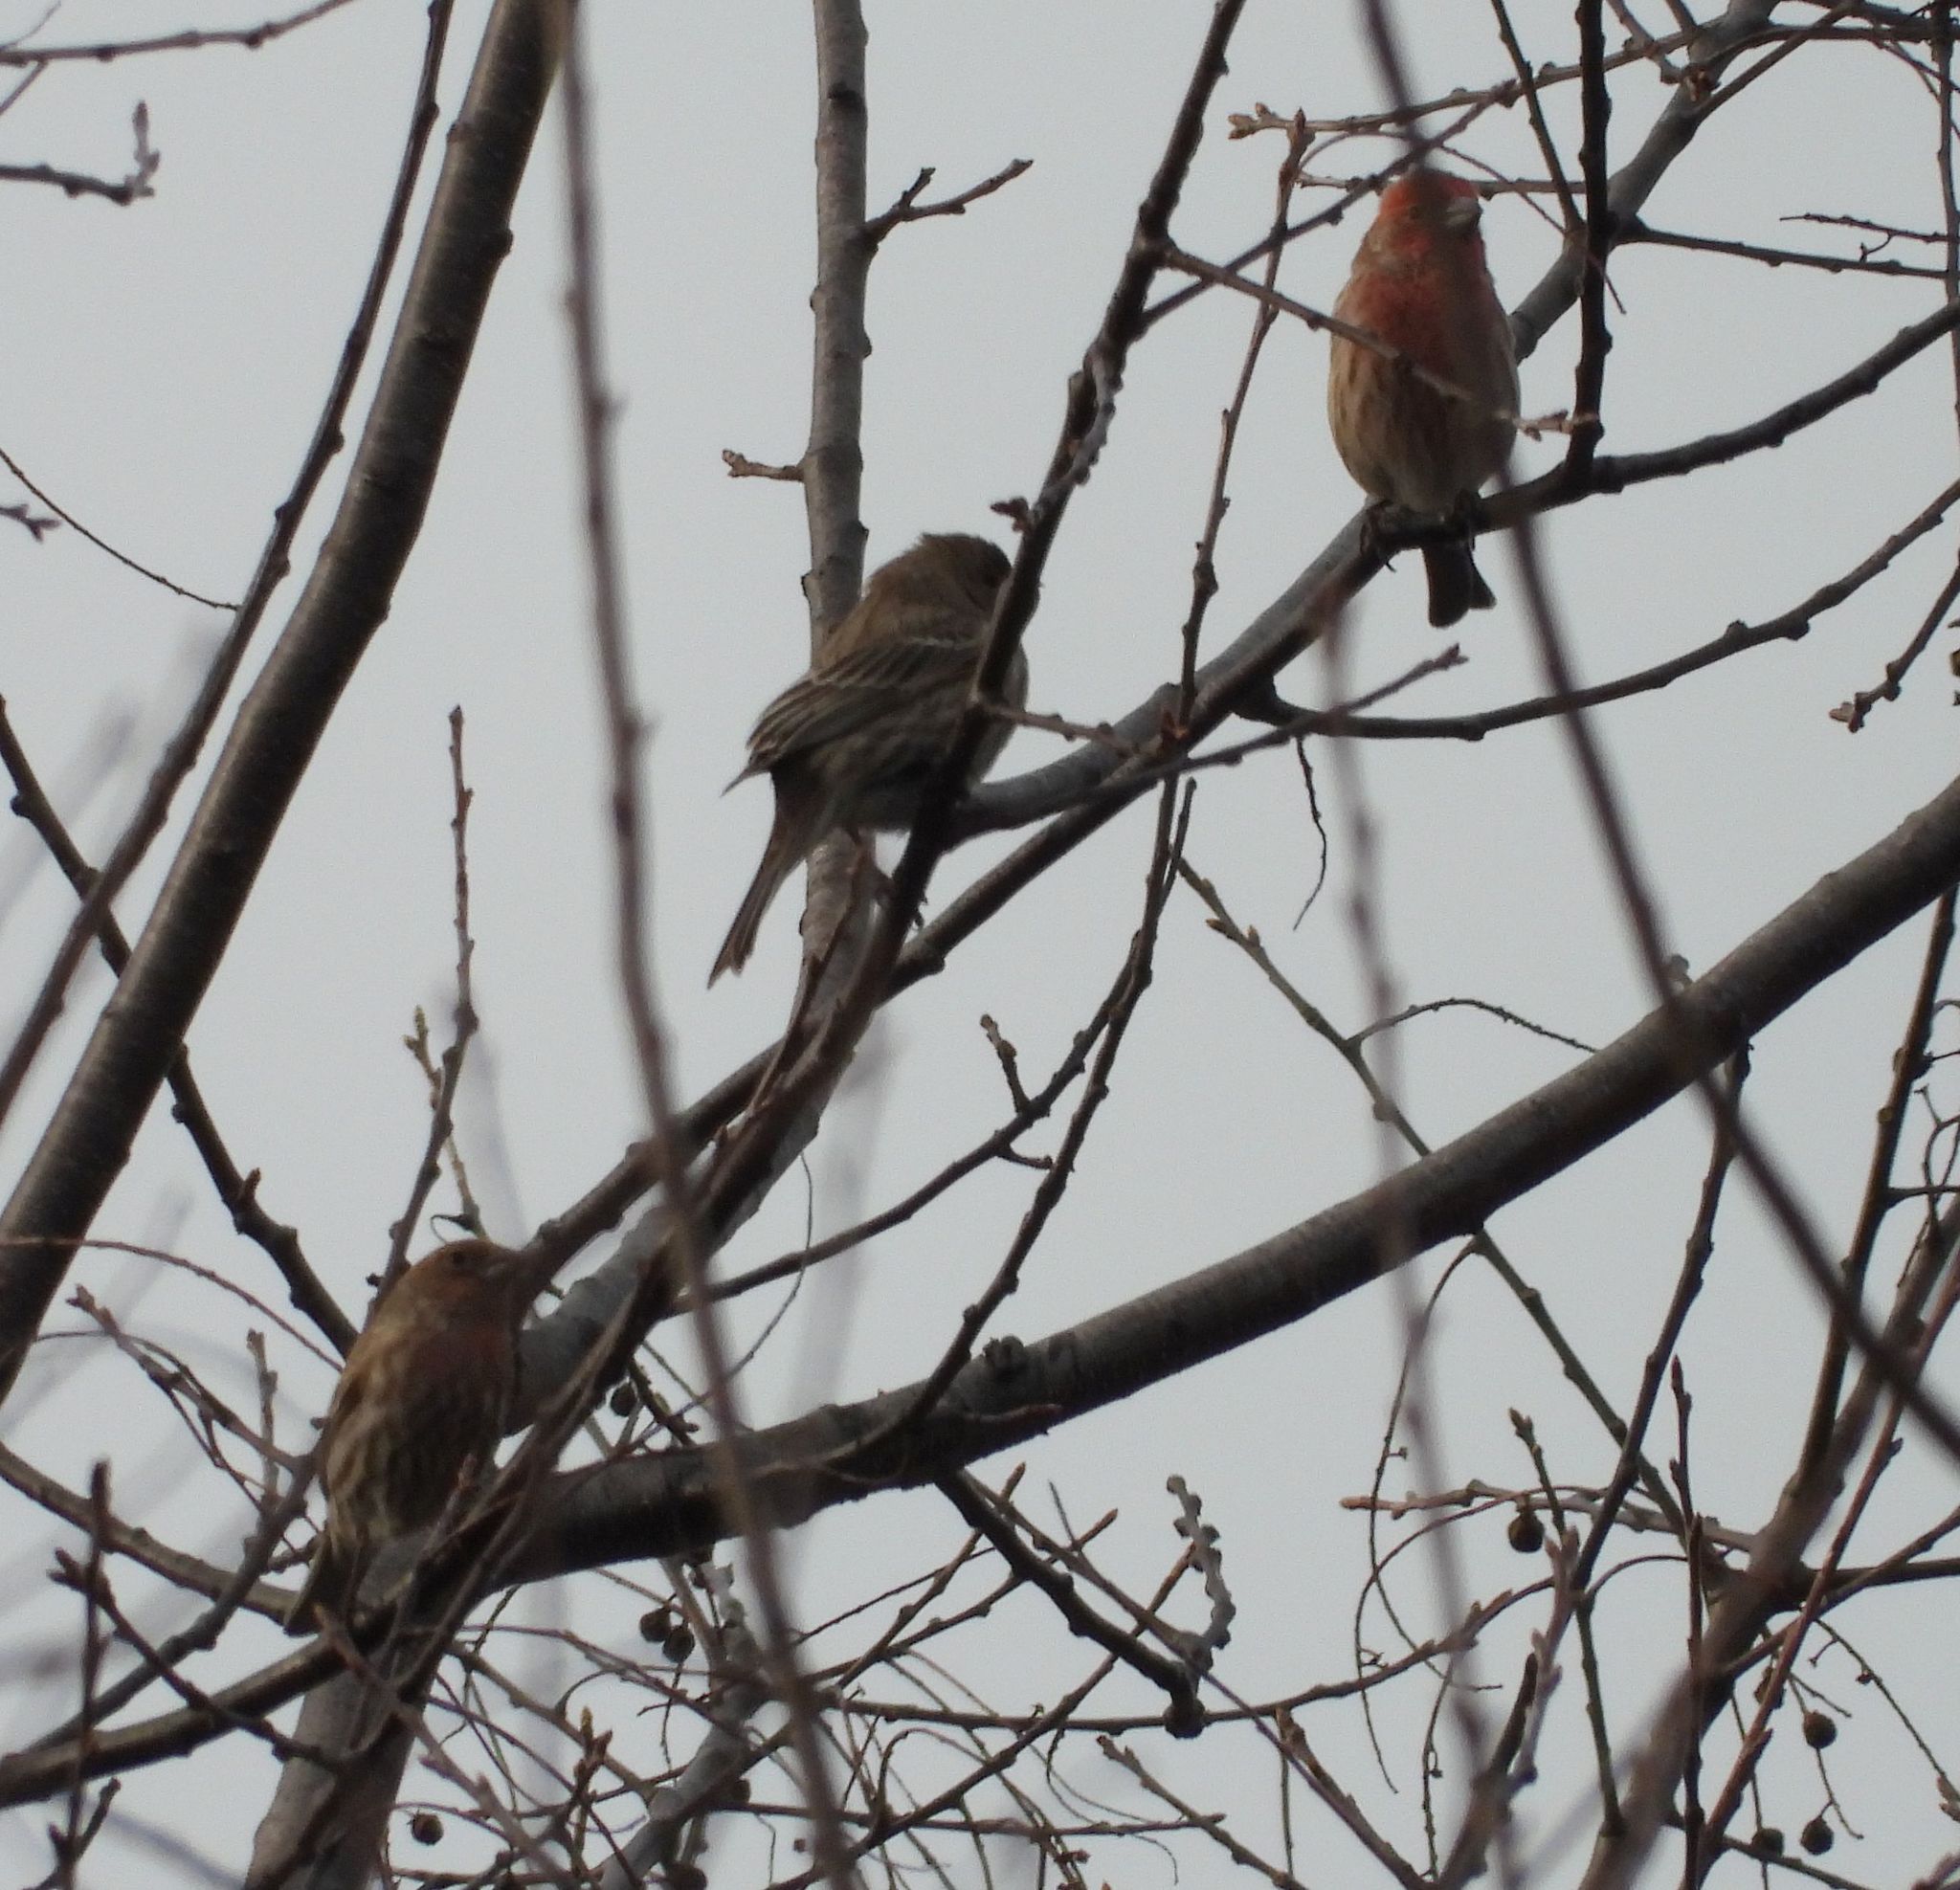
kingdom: Animalia
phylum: Chordata
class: Aves
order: Passeriformes
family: Fringillidae
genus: Haemorhous
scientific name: Haemorhous mexicanus
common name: House finch
